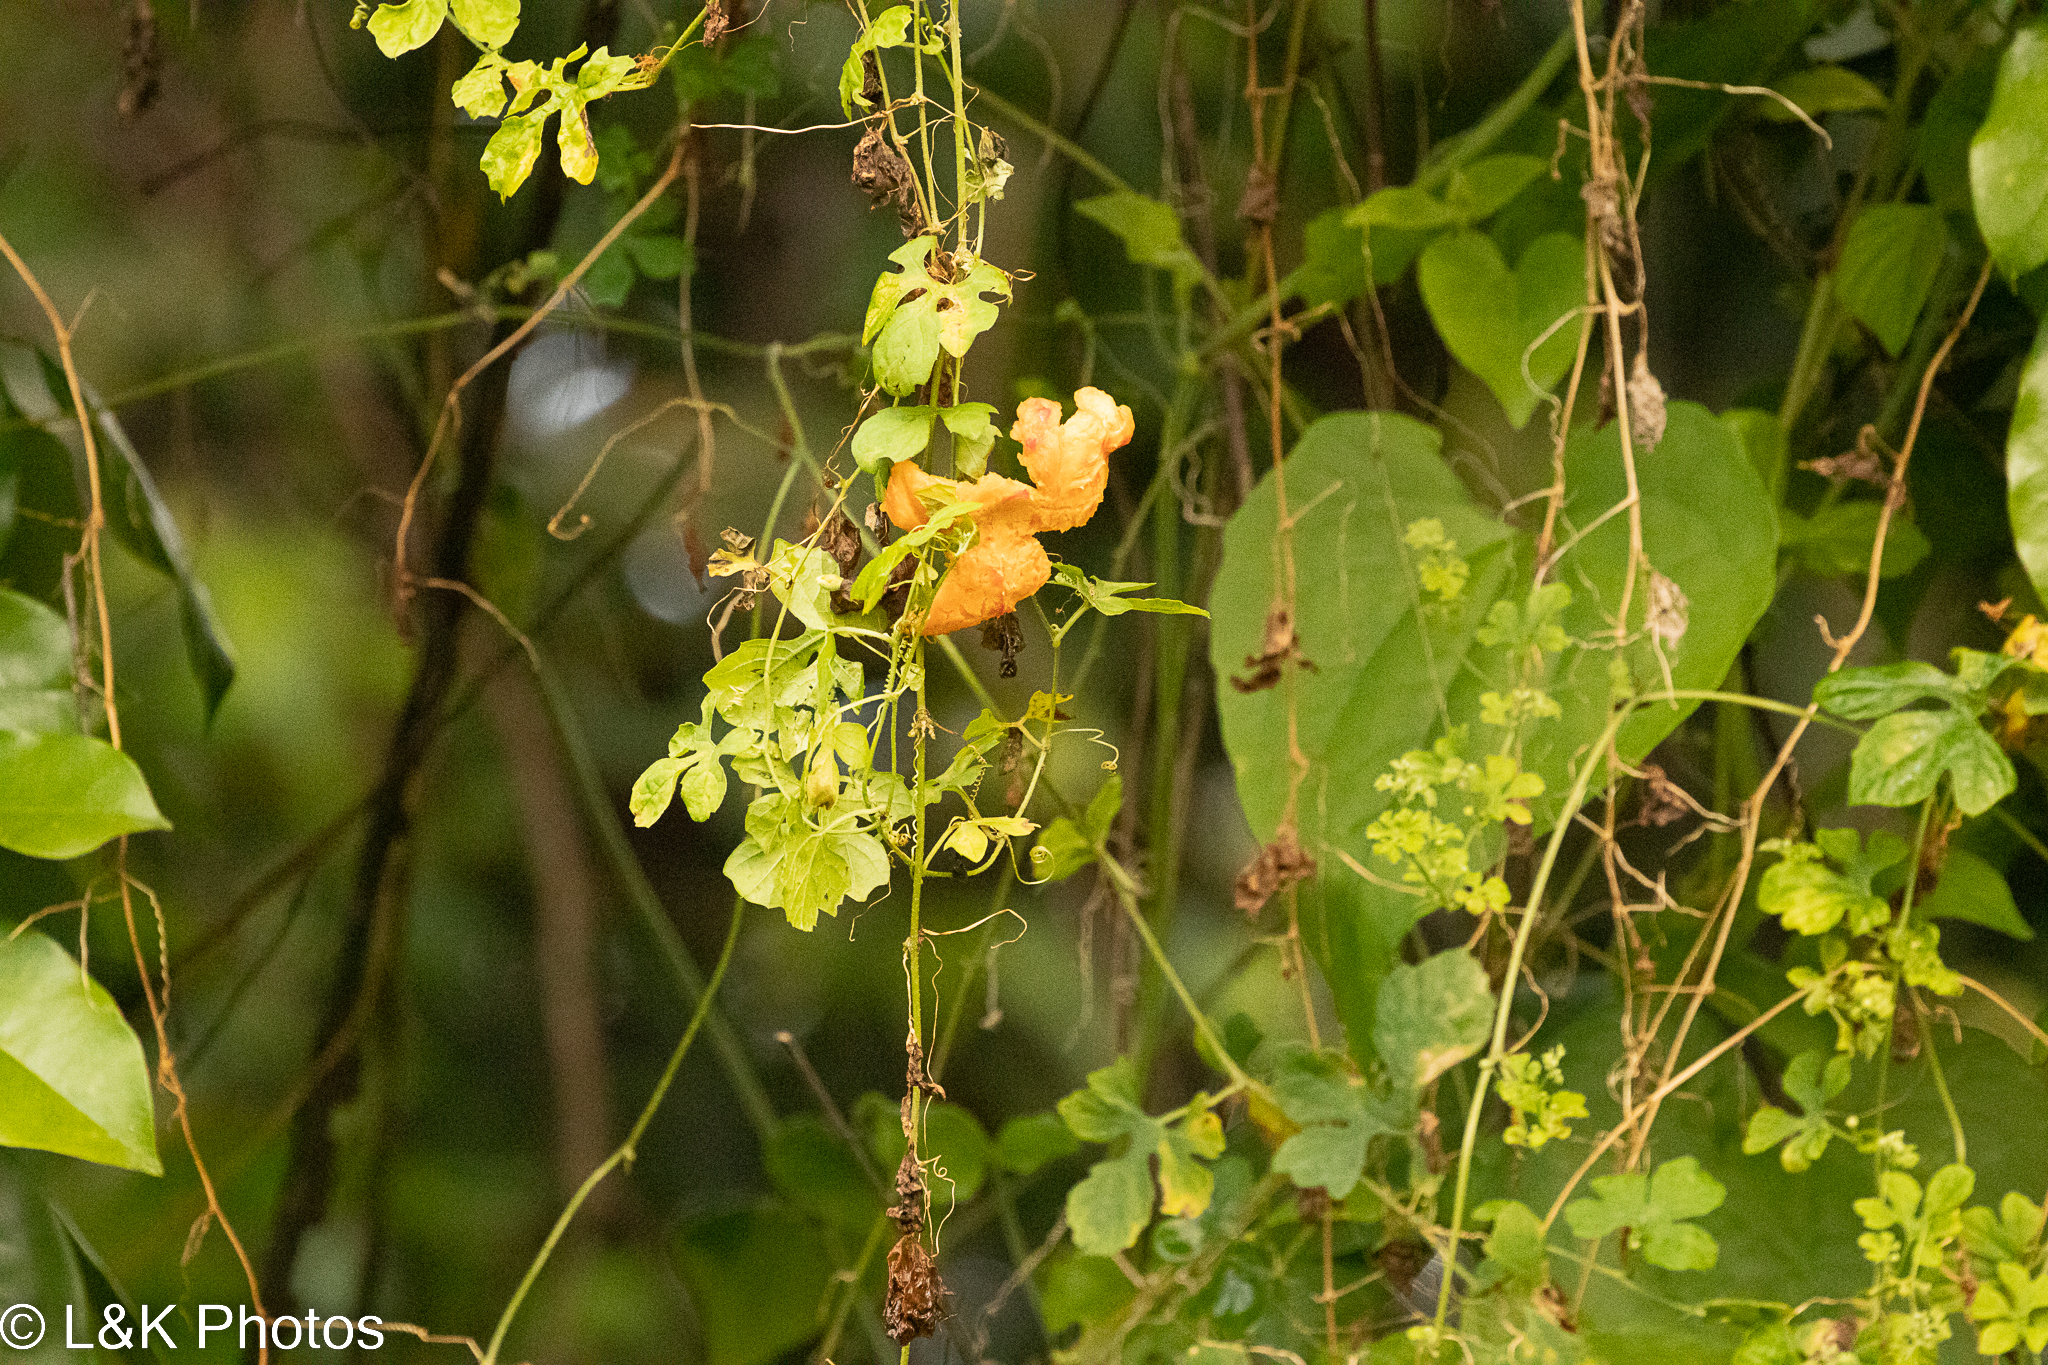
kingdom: Plantae
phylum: Tracheophyta
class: Magnoliopsida
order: Cucurbitales
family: Cucurbitaceae
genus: Momordica
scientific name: Momordica charantia
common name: Balsampear
